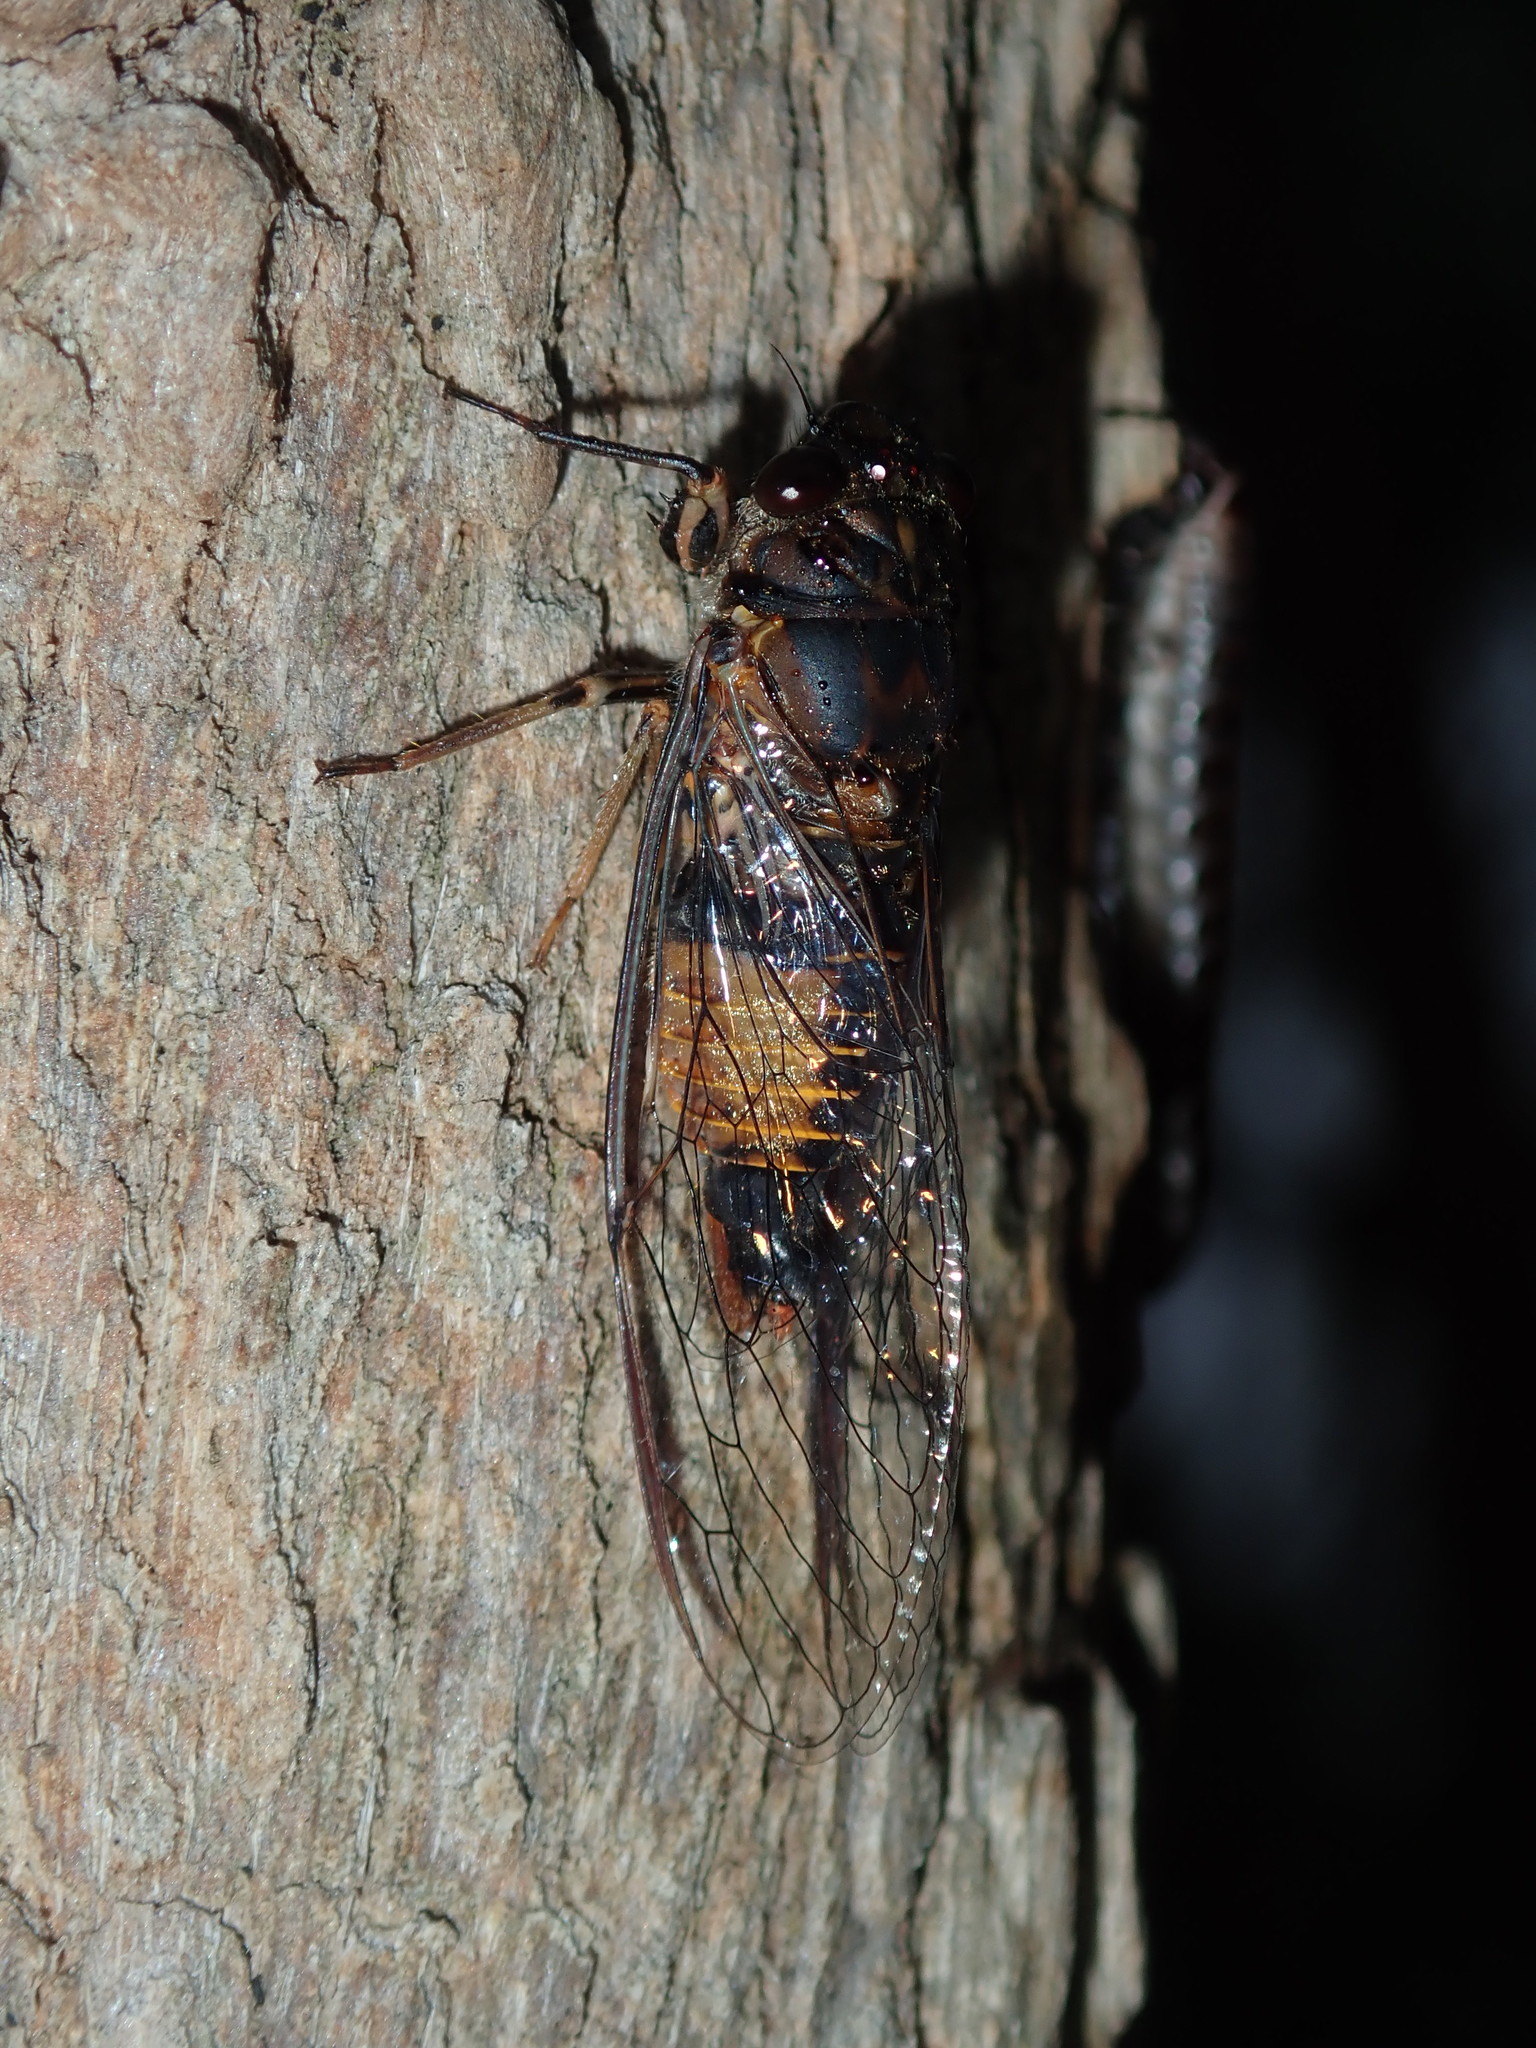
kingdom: Animalia
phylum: Arthropoda
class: Insecta
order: Hemiptera
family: Cicadidae
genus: Yoyetta
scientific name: Yoyetta repetens
